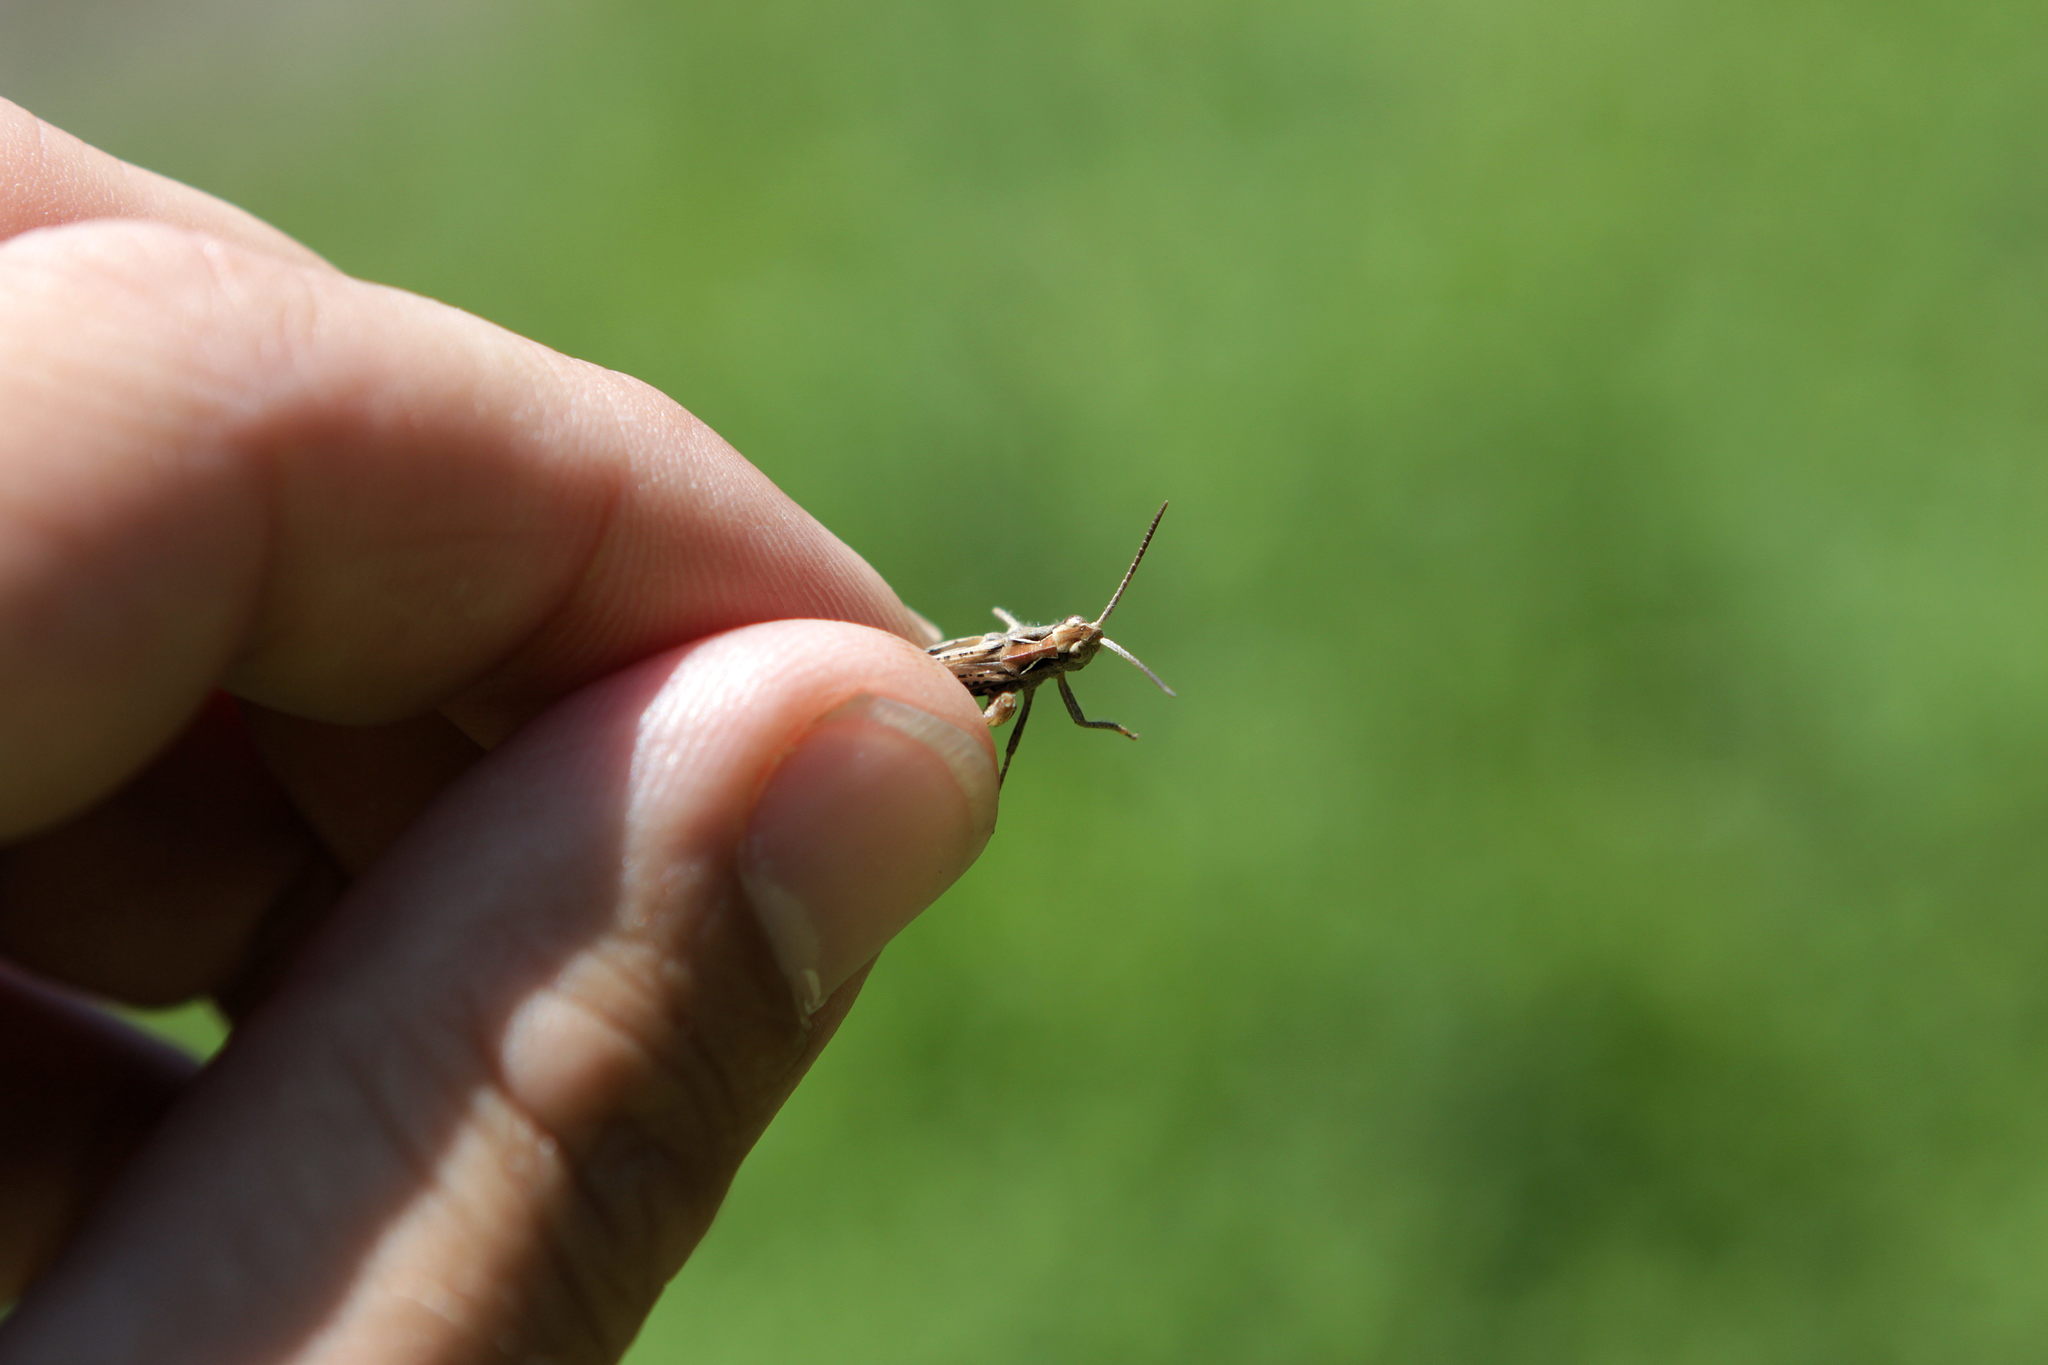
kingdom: Animalia
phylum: Arthropoda
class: Insecta
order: Orthoptera
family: Acrididae
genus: Chorthippus
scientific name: Chorthippus biguttulus
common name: Bow-winged grasshopper
